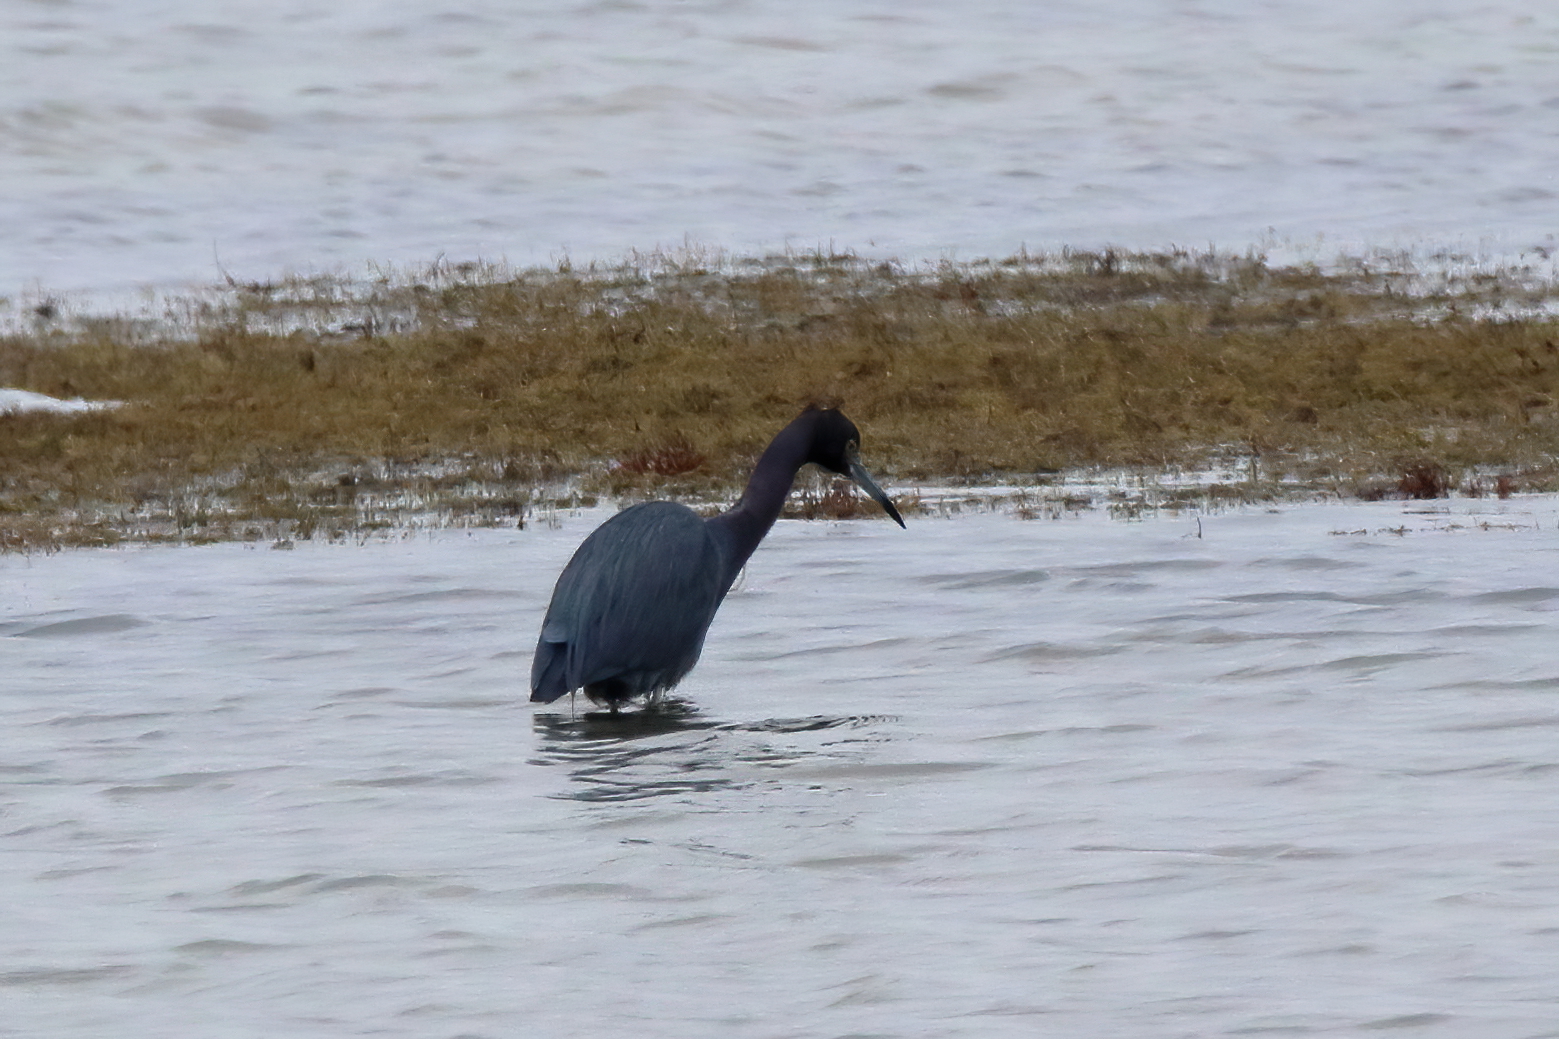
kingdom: Animalia
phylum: Chordata
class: Aves
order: Pelecaniformes
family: Ardeidae
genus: Egretta
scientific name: Egretta caerulea
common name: Little blue heron
